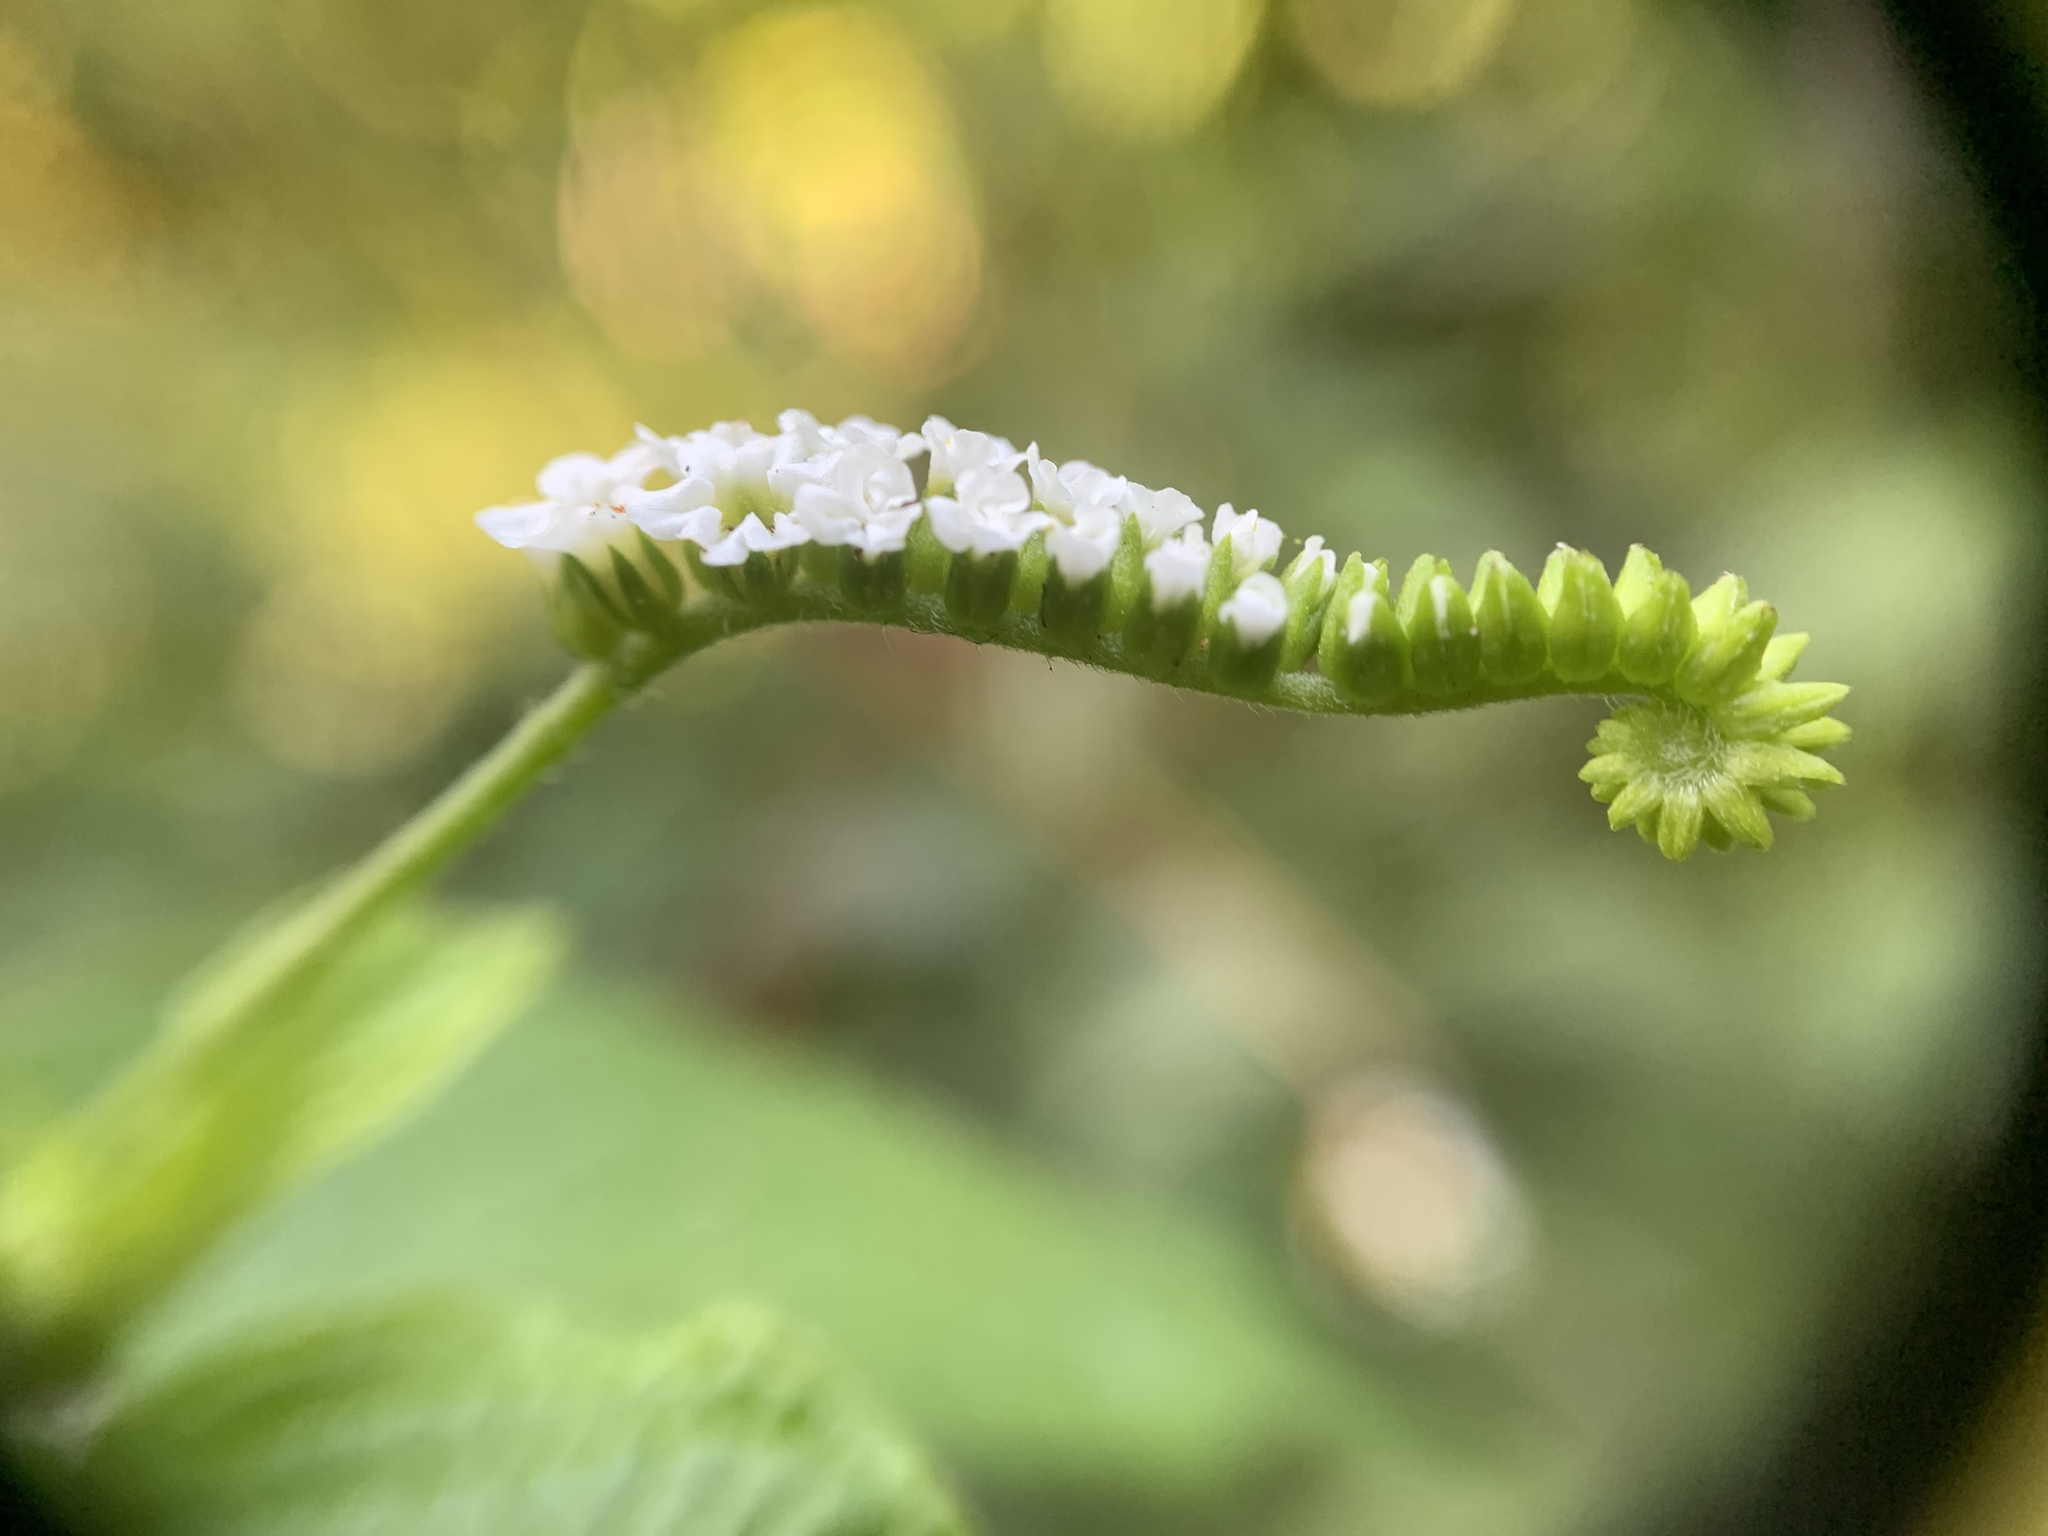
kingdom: Plantae
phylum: Tracheophyta
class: Magnoliopsida
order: Boraginales
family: Heliotropiaceae
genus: Heliotropium
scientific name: Heliotropium angiospermum
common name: Eye bright
